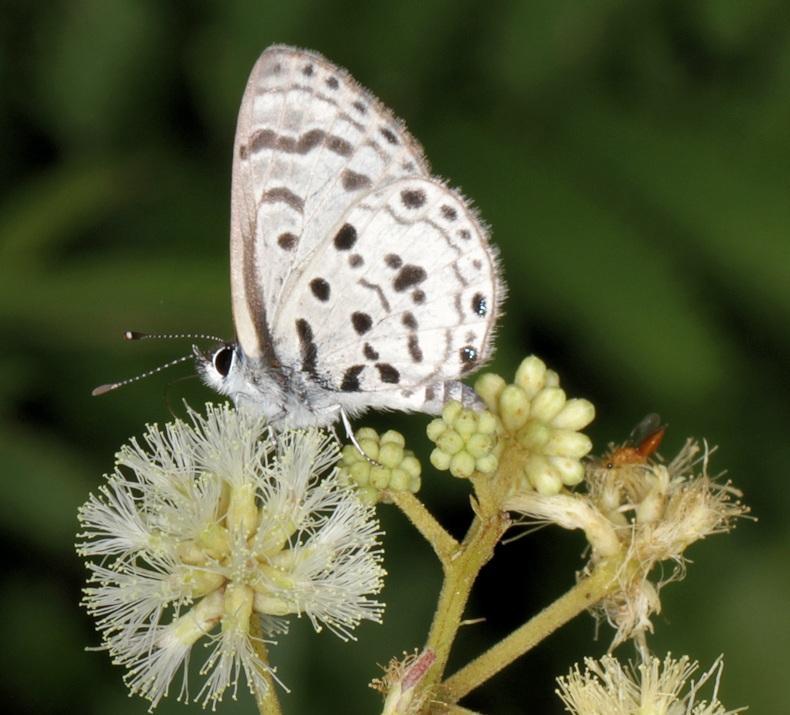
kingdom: Animalia
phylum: Arthropoda
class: Insecta
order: Lepidoptera
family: Lycaenidae
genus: Azanus
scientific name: Azanus moriqua
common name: Thorn-tree babul blue
